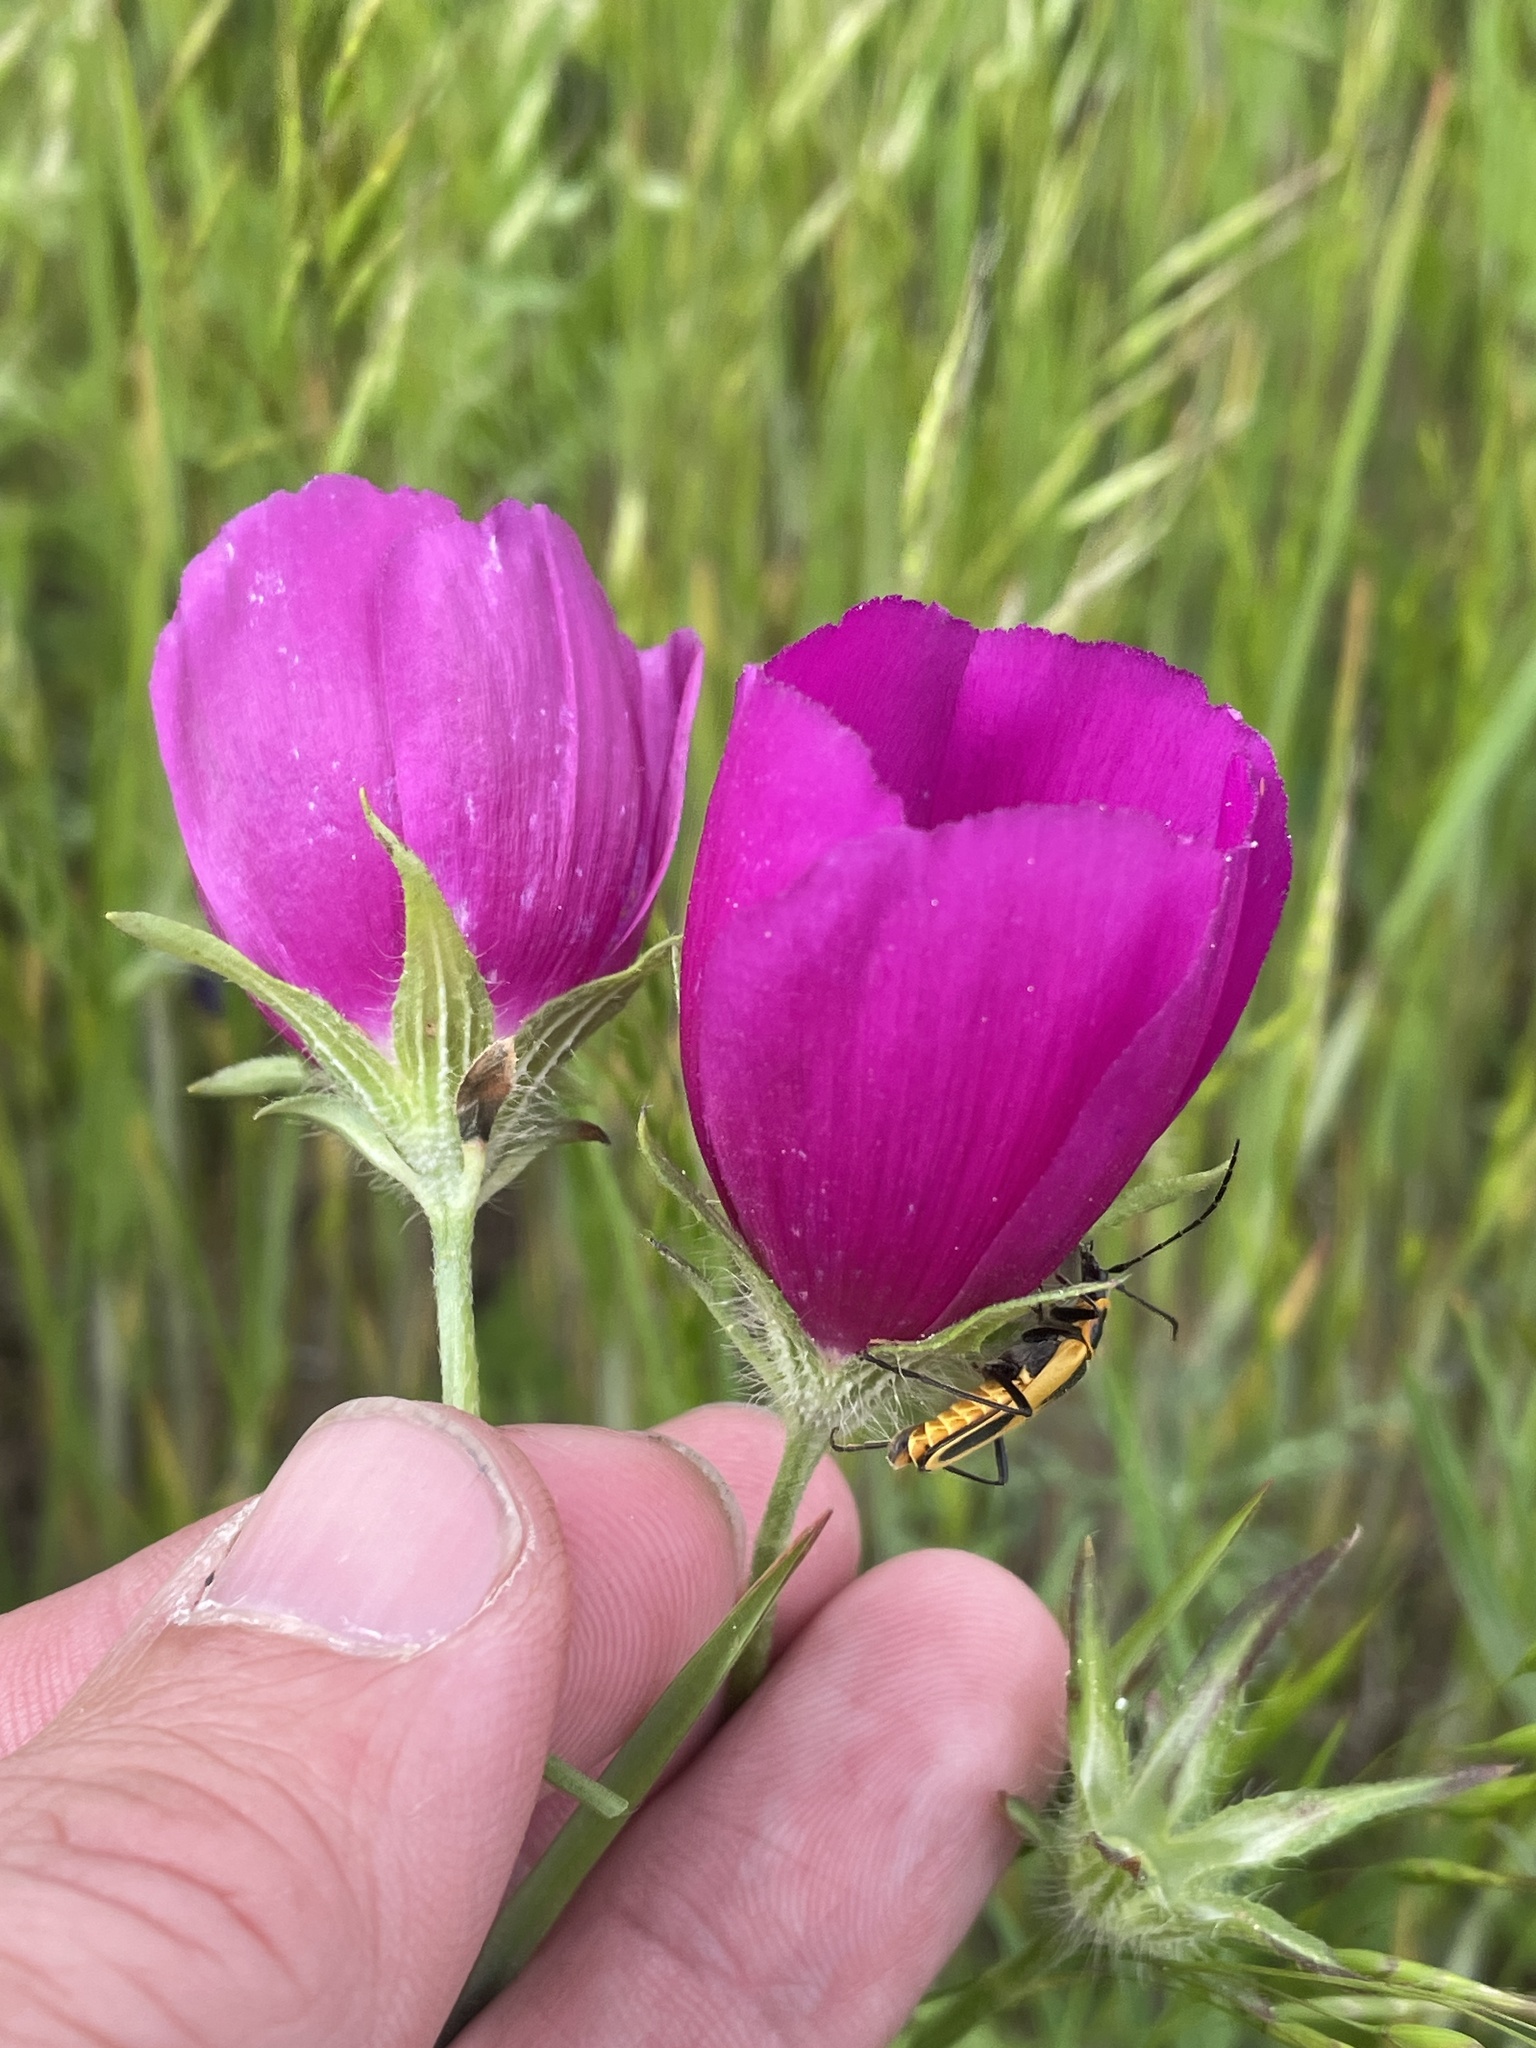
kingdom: Plantae
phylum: Tracheophyta
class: Magnoliopsida
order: Malvales
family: Malvaceae
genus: Callirhoe
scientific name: Callirhoe involucrata
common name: Purple poppy-mallow
